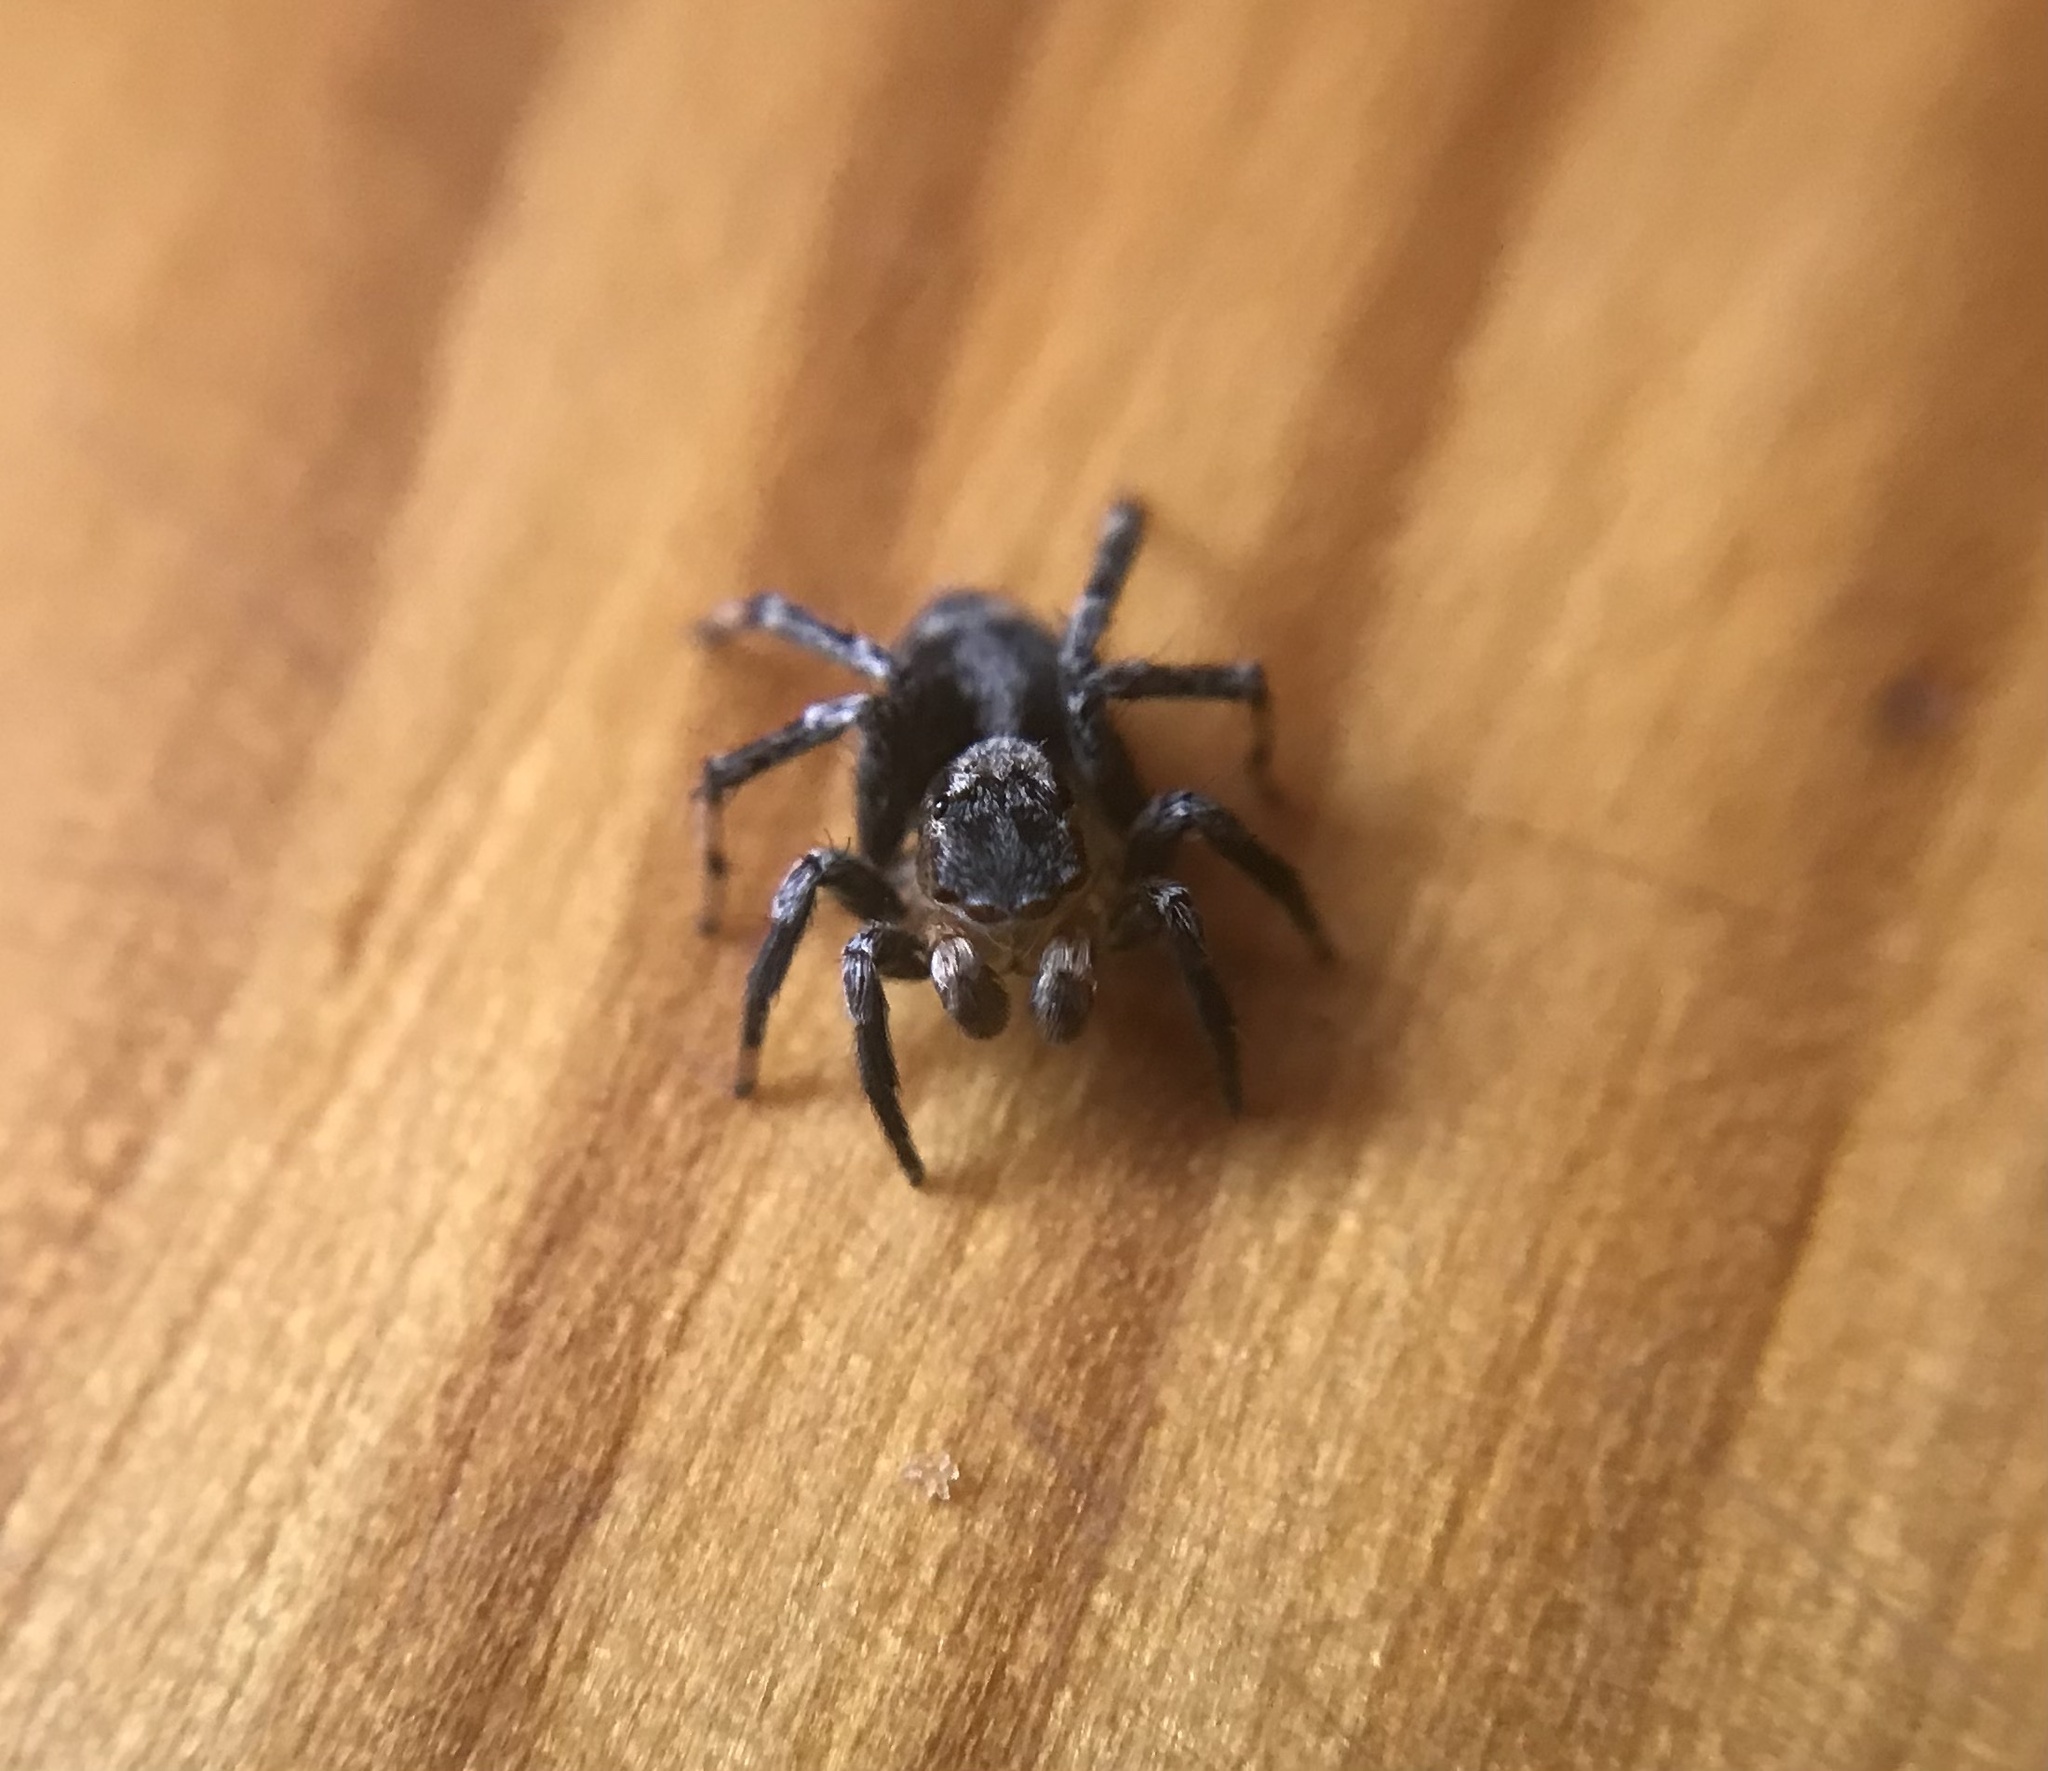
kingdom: Animalia
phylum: Arthropoda
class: Arachnida
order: Araneae
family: Salticidae
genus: Naphrys
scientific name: Naphrys pulex
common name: Flea jumping spider
